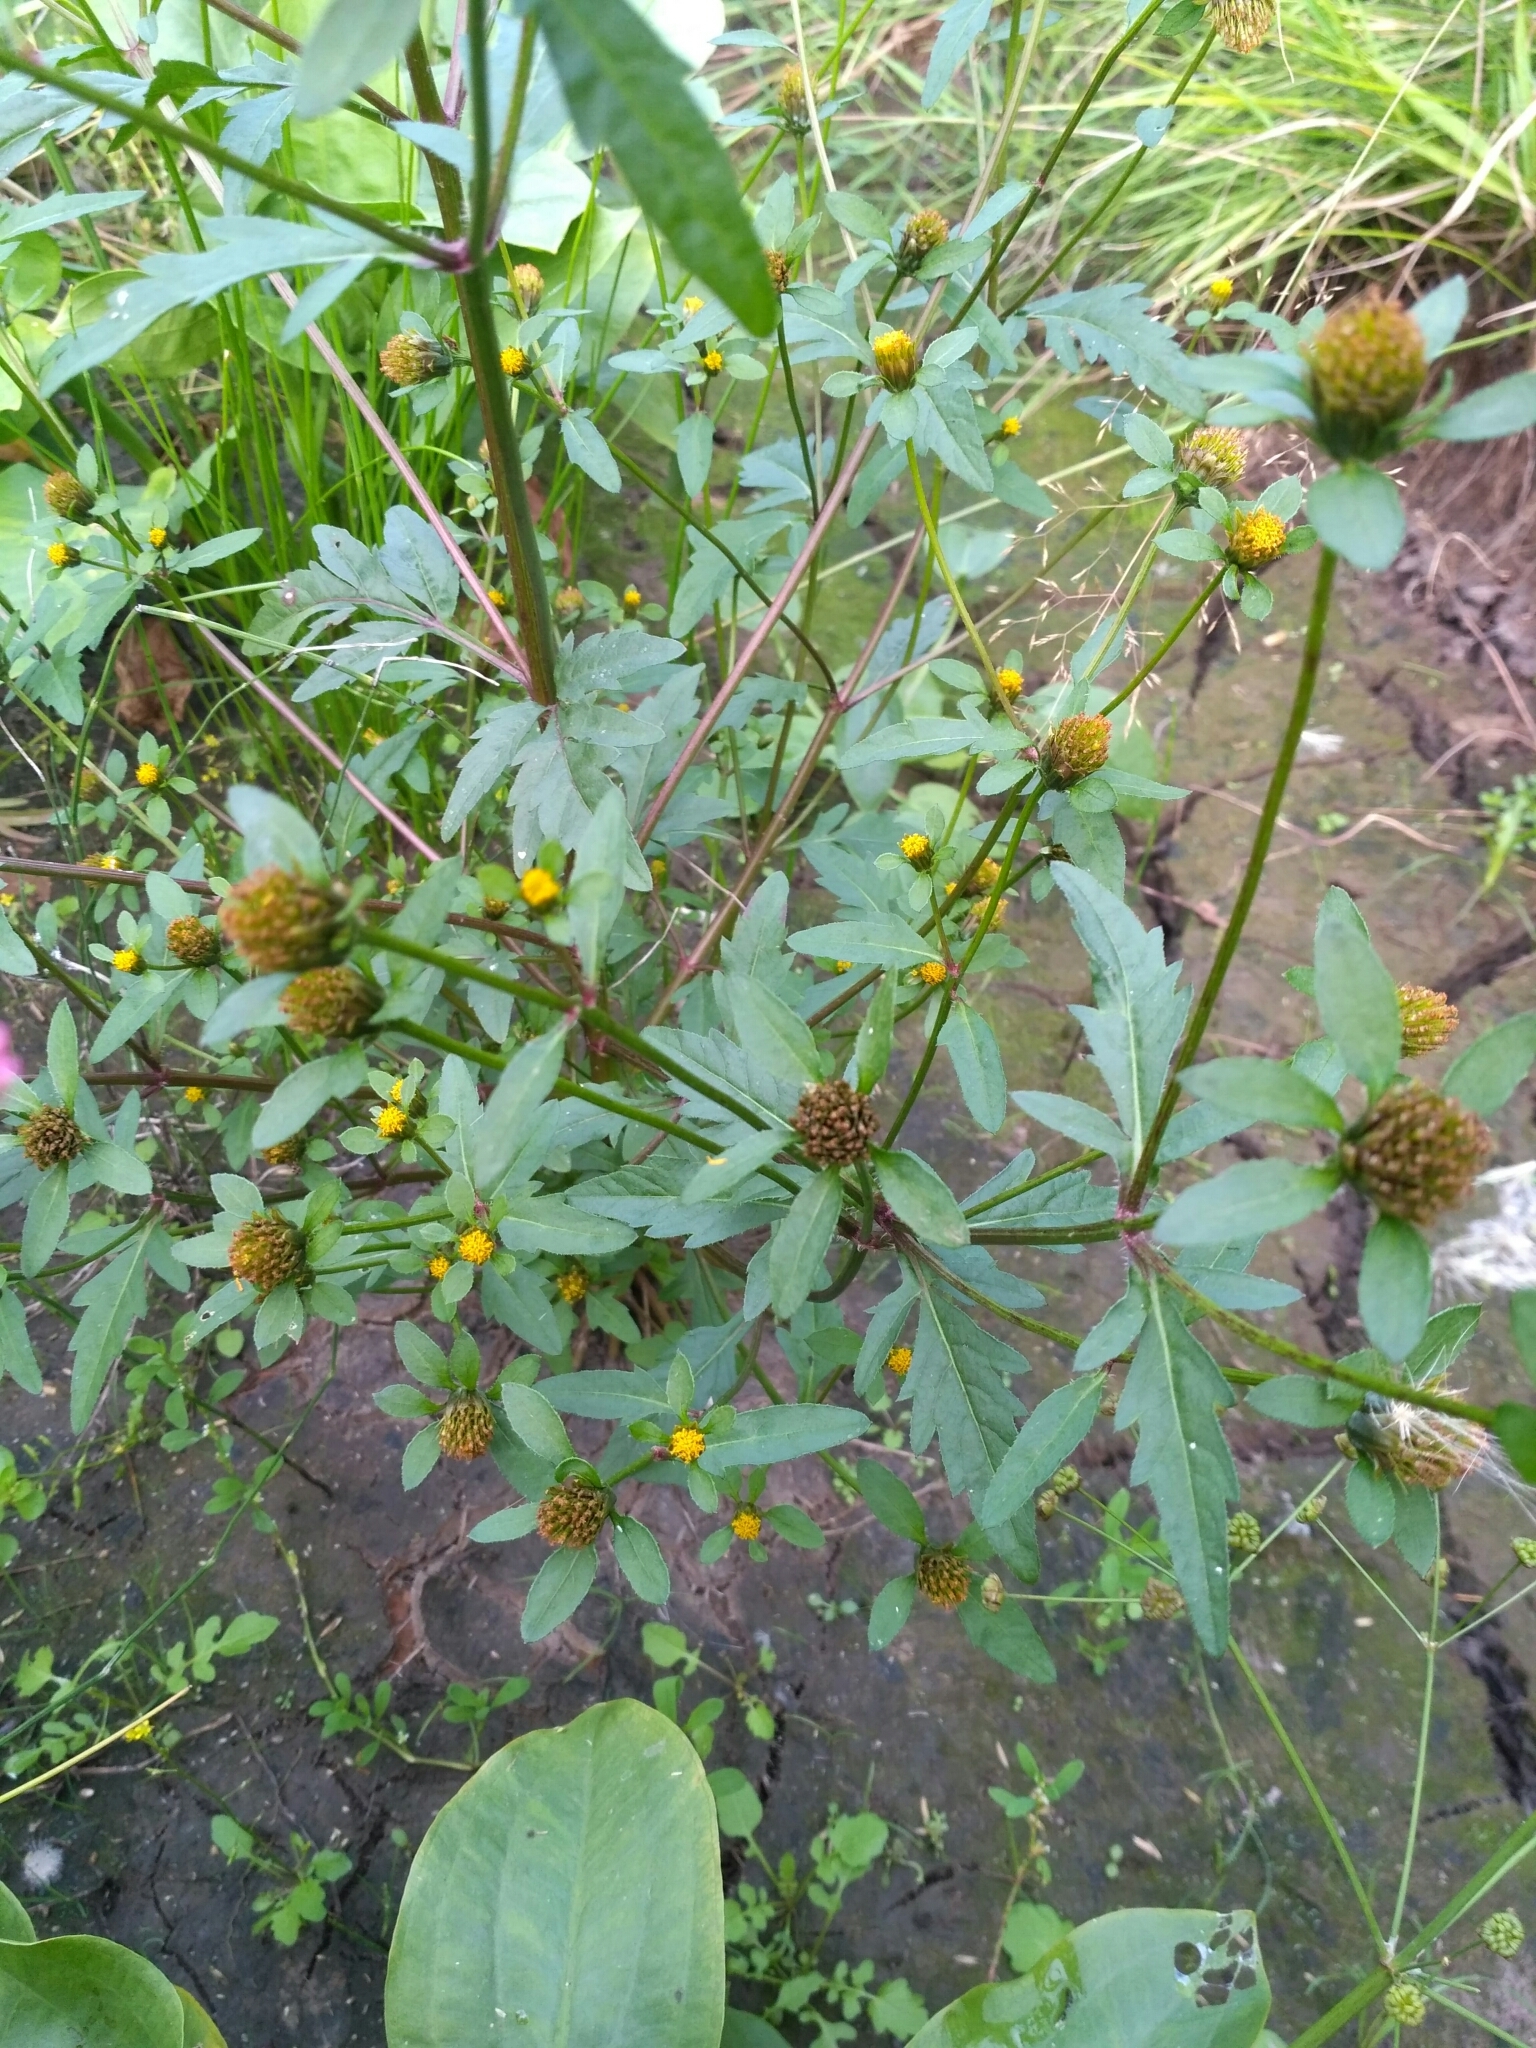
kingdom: Plantae
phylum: Tracheophyta
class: Magnoliopsida
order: Asterales
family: Asteraceae
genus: Bidens
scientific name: Bidens tripartita
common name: Trifid bur-marigold
